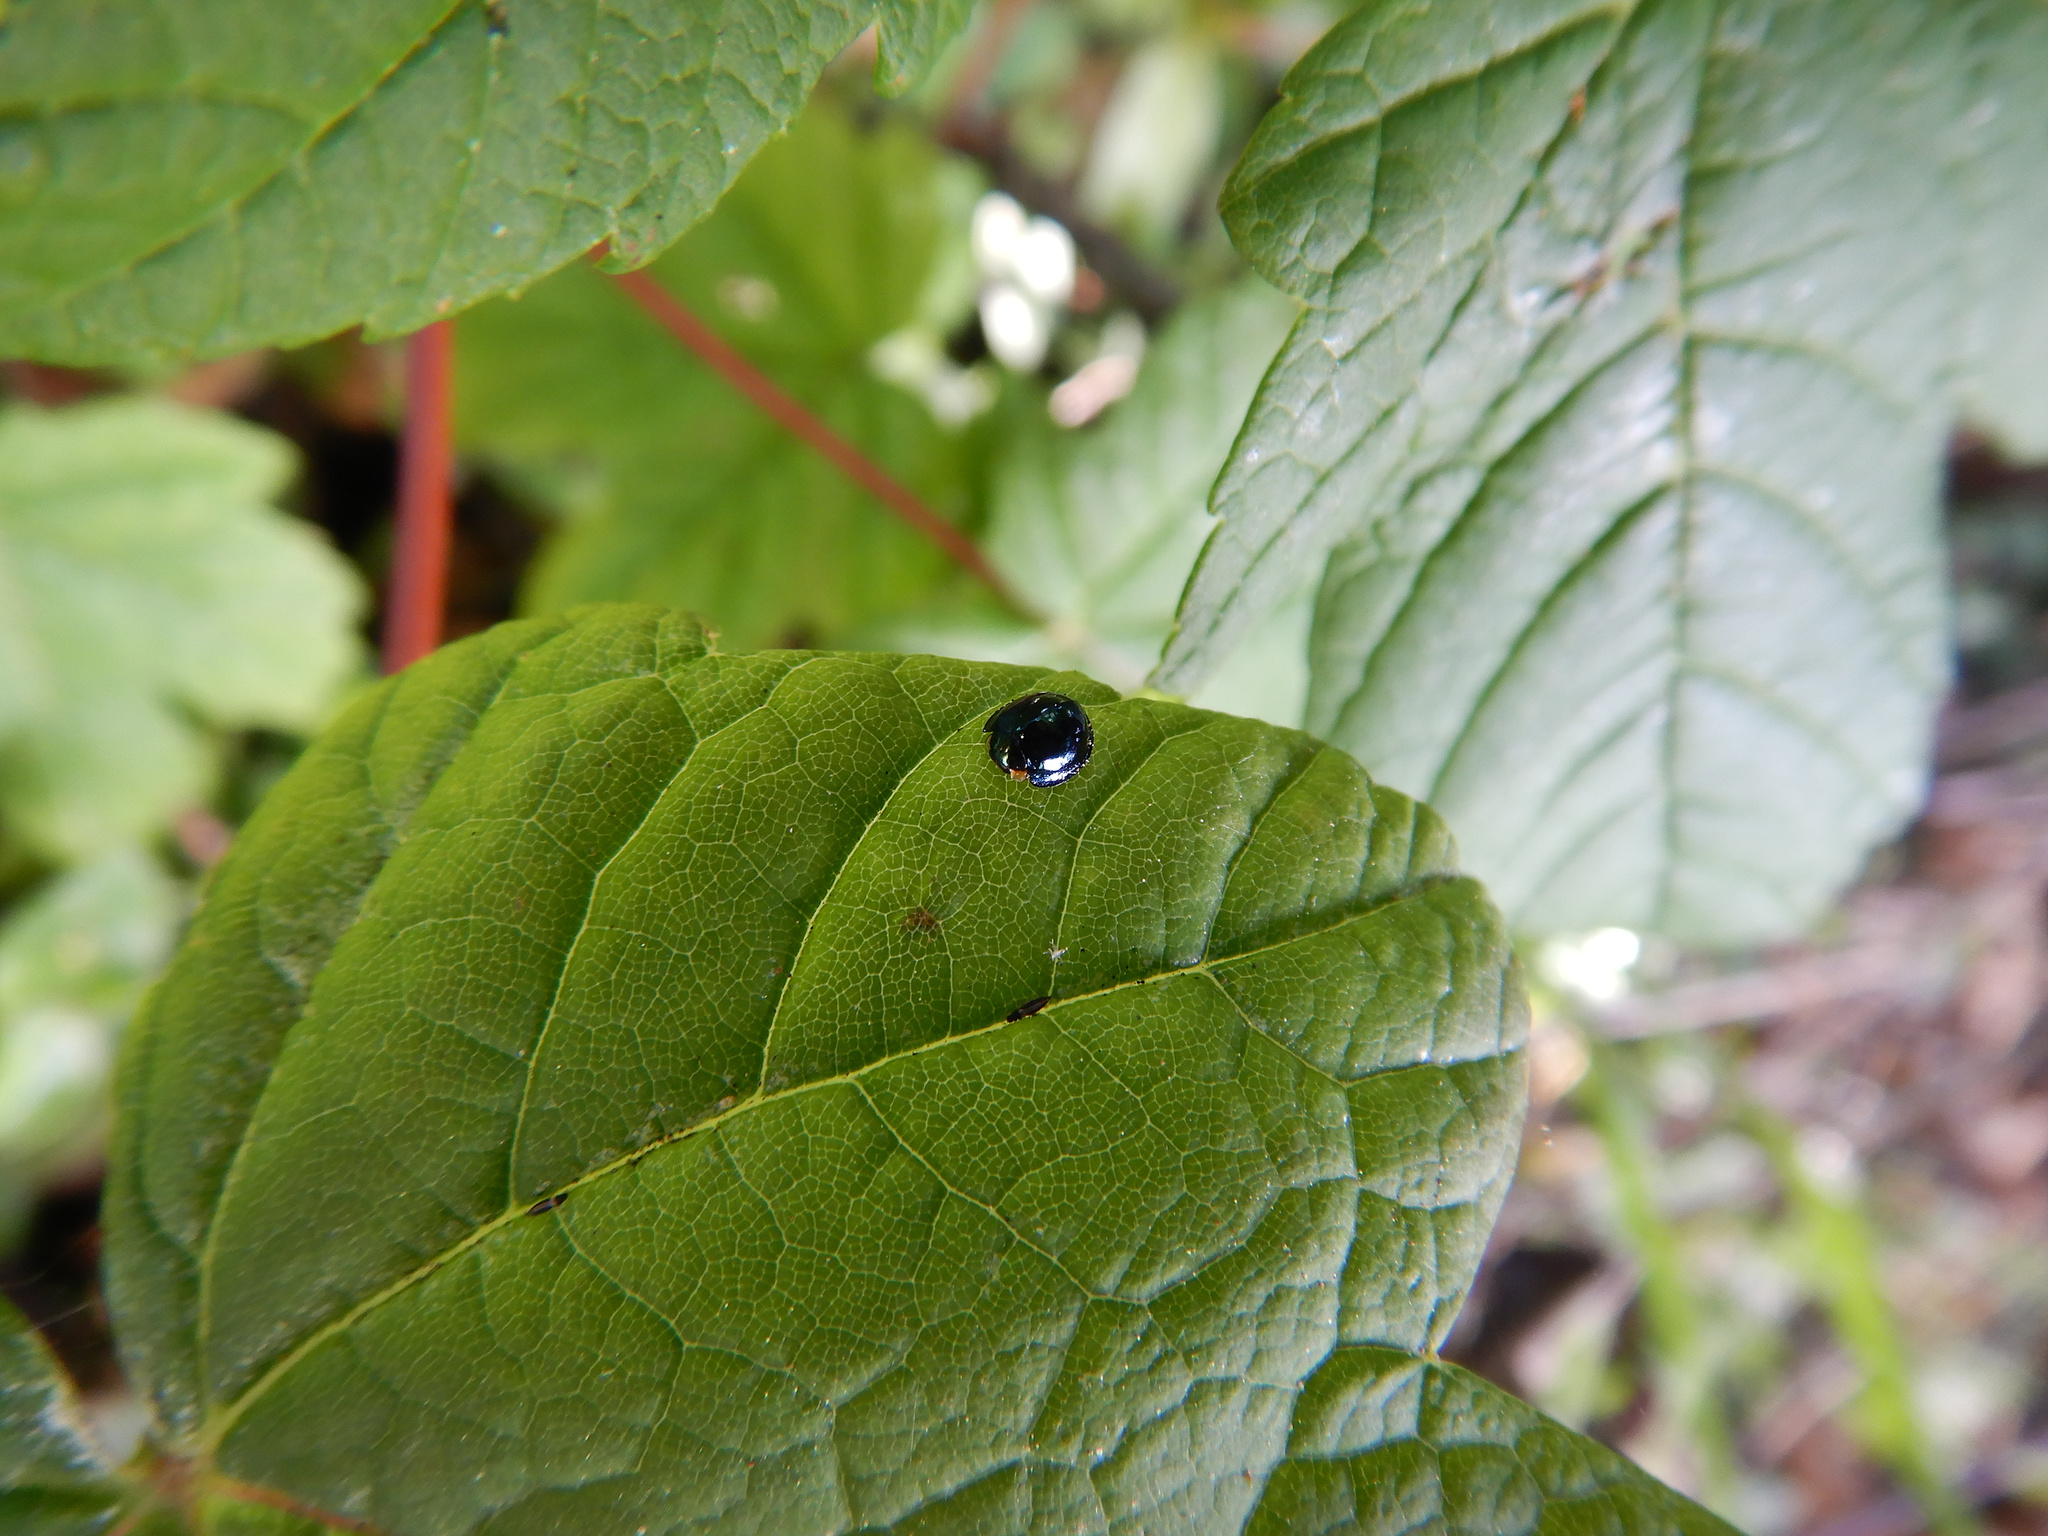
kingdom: Animalia
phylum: Arthropoda
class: Insecta
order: Coleoptera
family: Coccinellidae
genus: Halmus
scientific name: Halmus chalybeus
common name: Steel blue ladybird beetle
